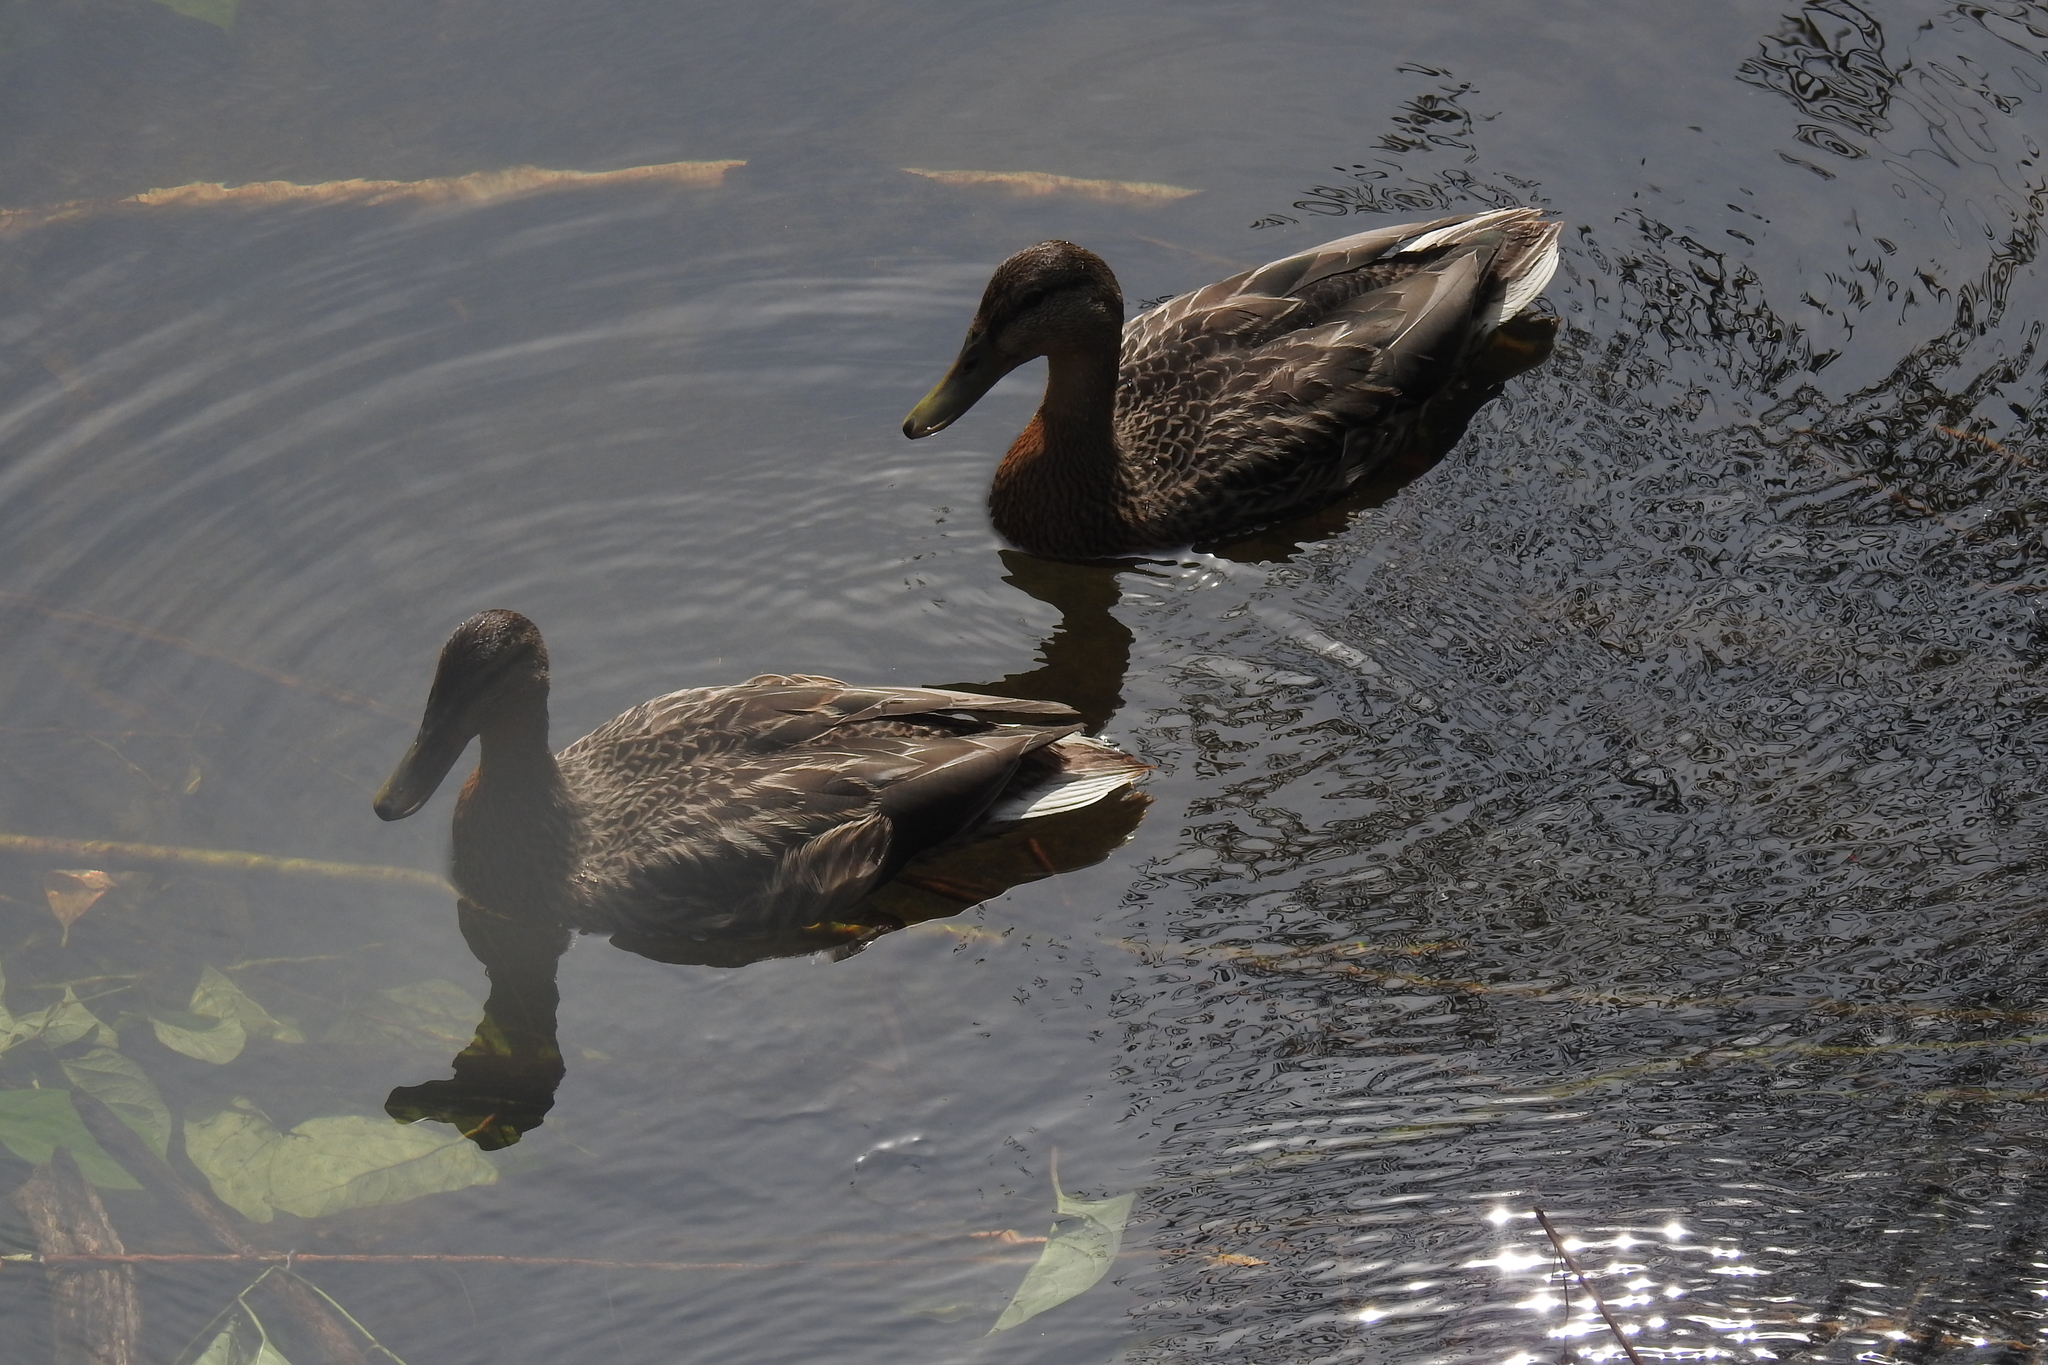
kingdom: Animalia
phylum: Chordata
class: Aves
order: Anseriformes
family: Anatidae
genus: Anas
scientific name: Anas platyrhynchos
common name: Mallard
